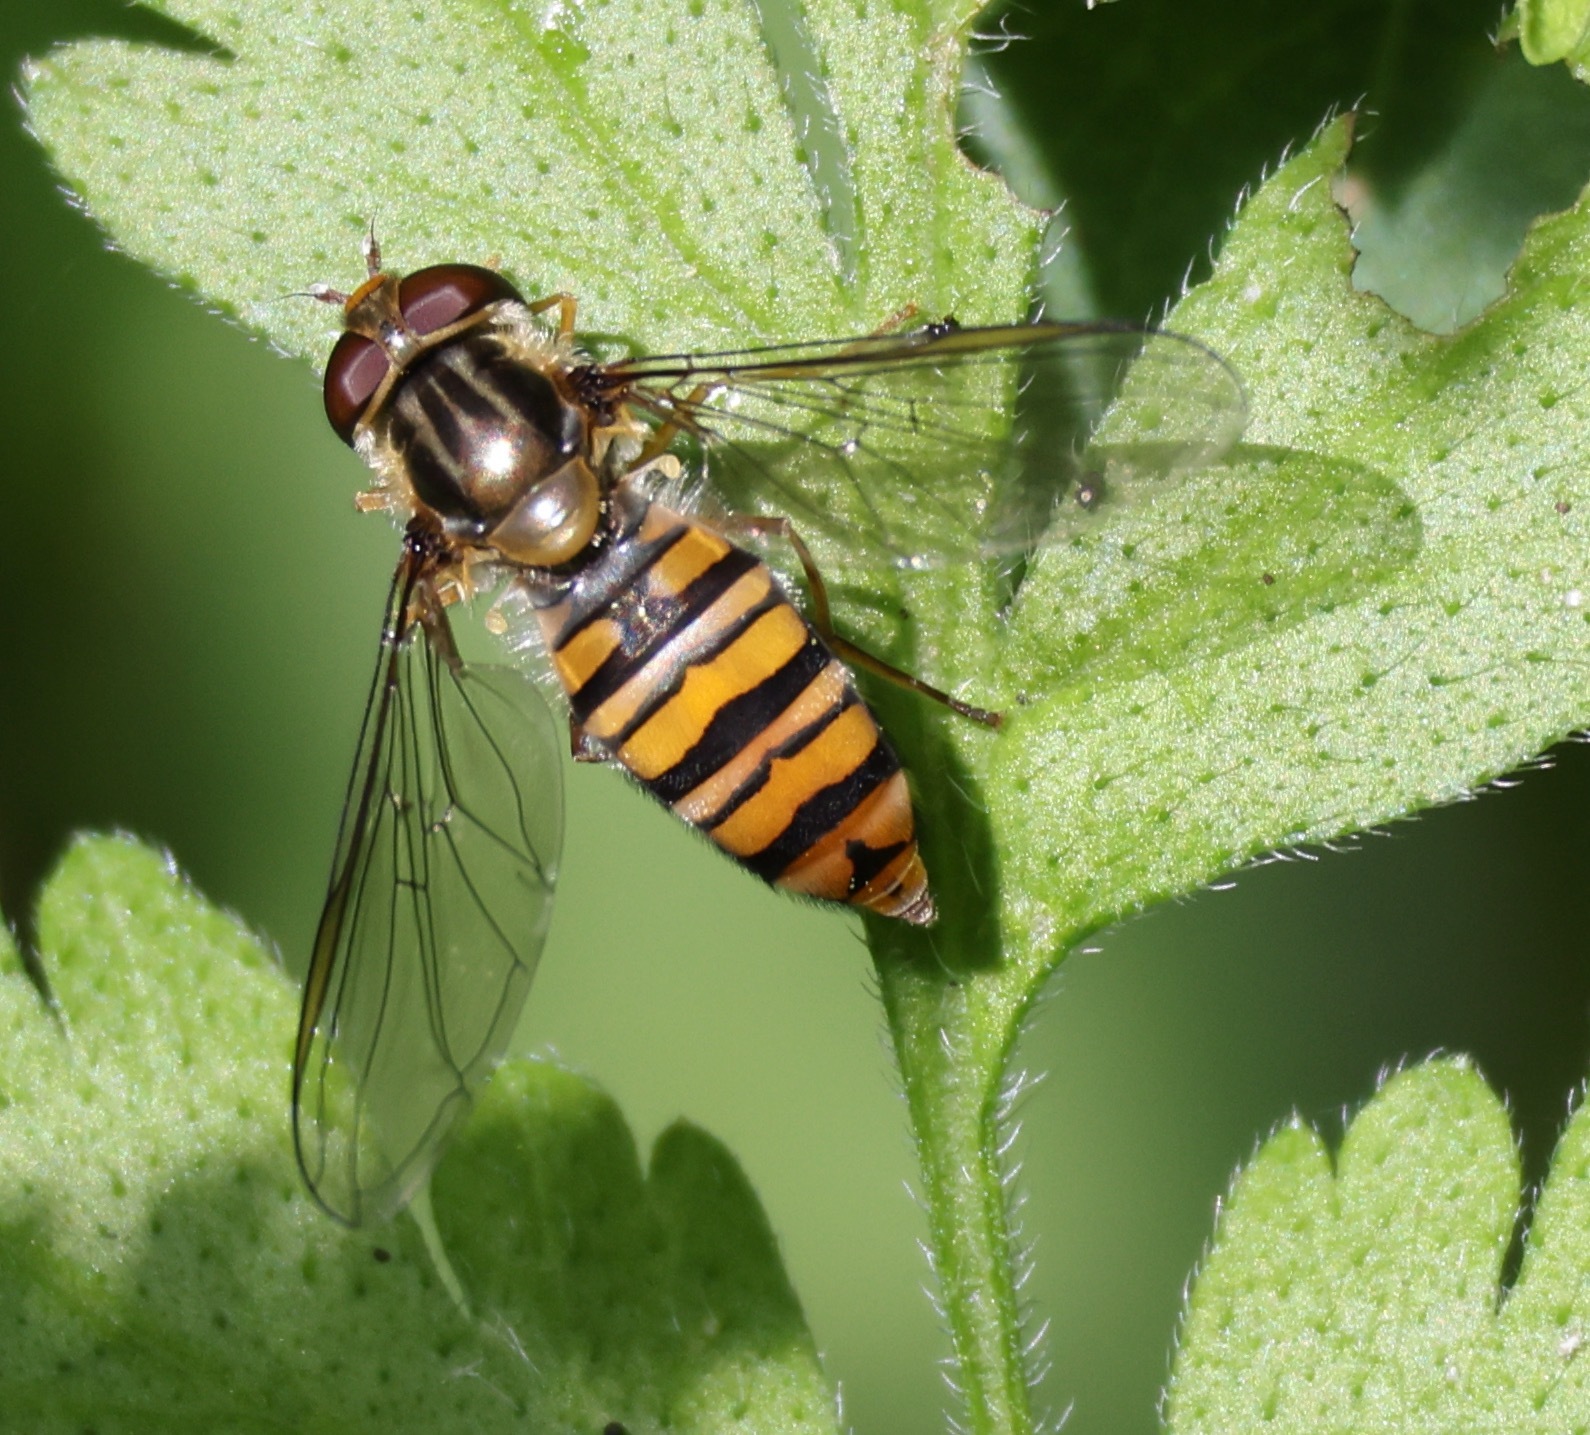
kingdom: Animalia
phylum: Arthropoda
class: Insecta
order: Diptera
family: Syrphidae
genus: Episyrphus
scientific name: Episyrphus balteatus
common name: Marmalade hoverfly
